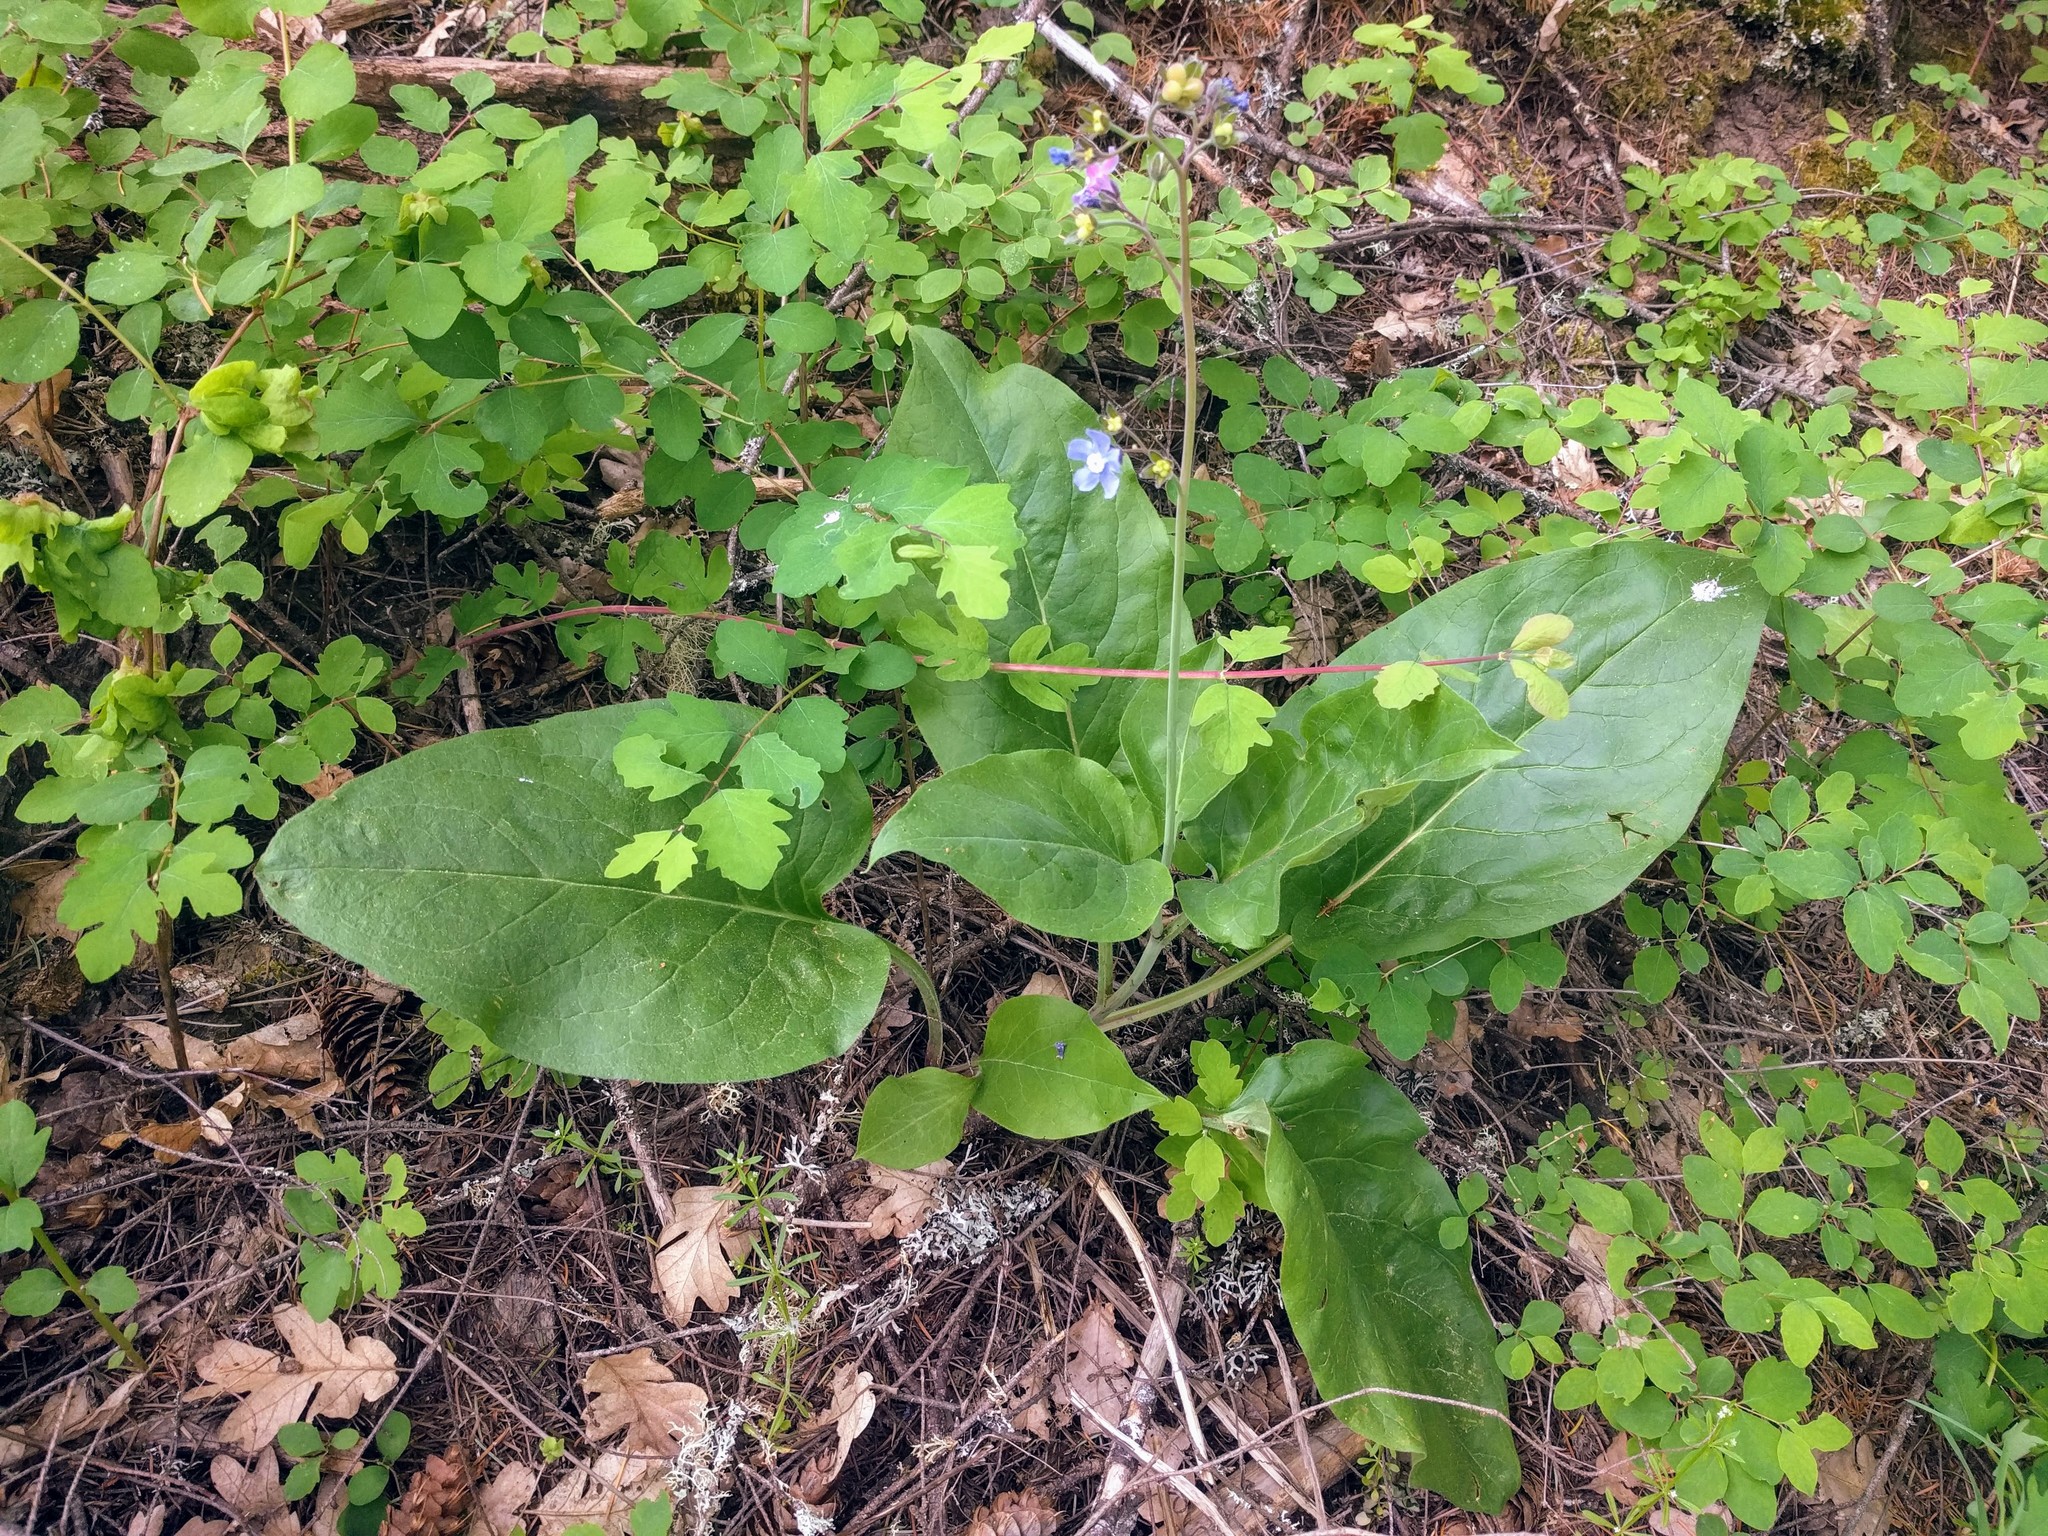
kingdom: Plantae
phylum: Tracheophyta
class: Magnoliopsida
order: Boraginales
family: Boraginaceae
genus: Adelinia
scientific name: Adelinia grande
